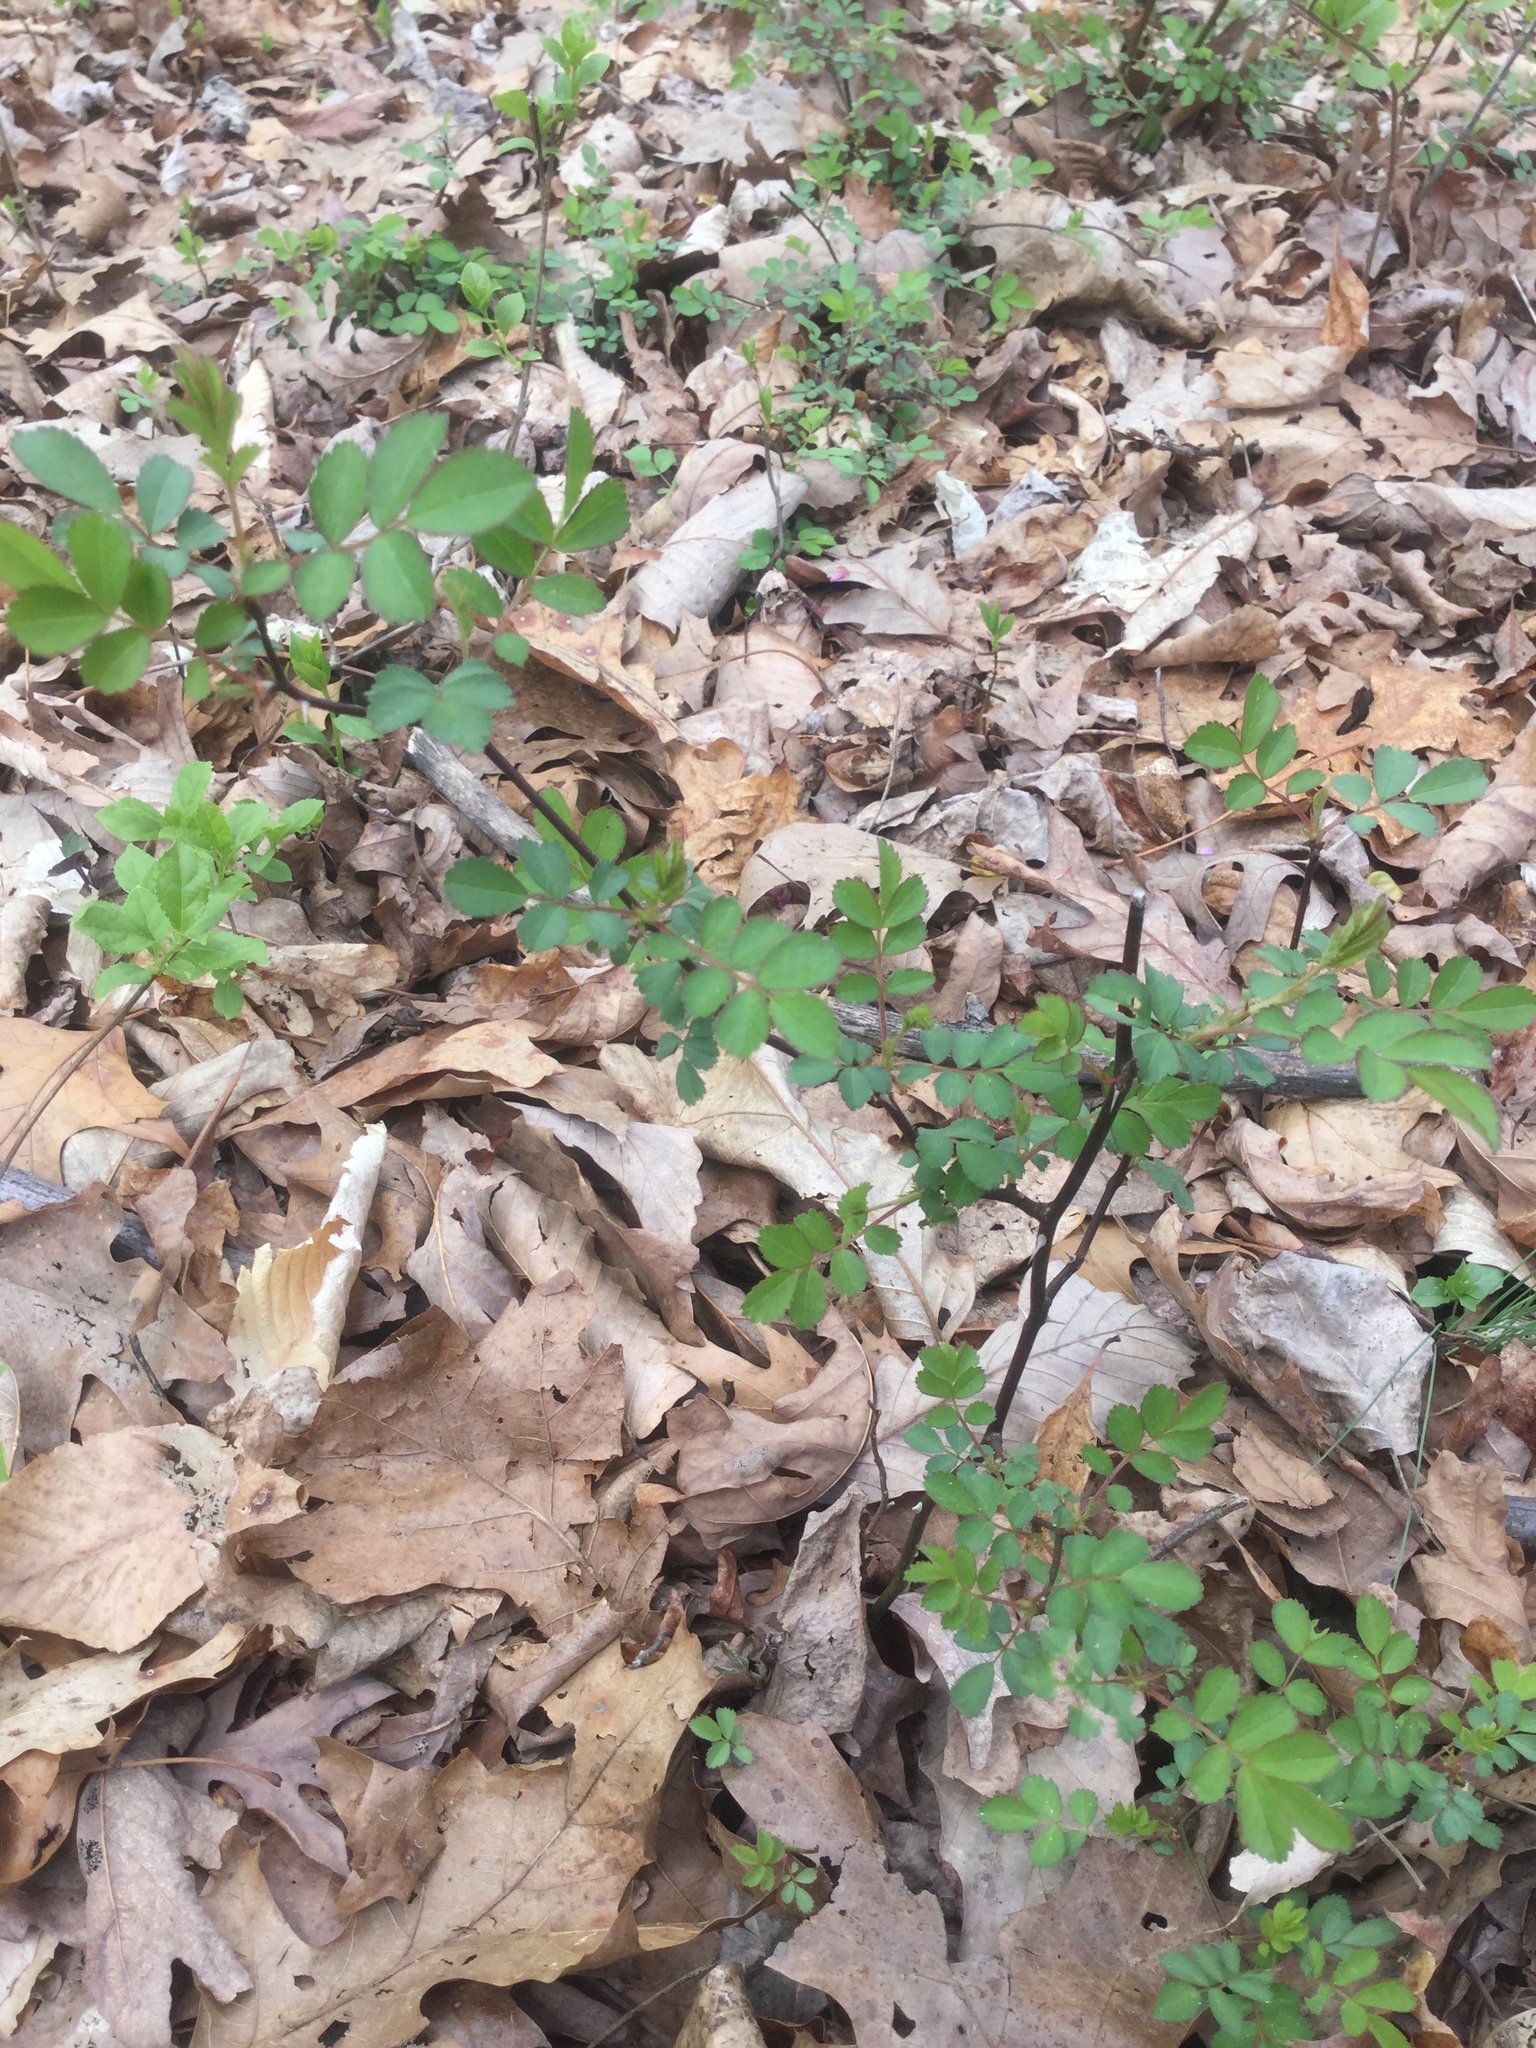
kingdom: Plantae
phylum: Tracheophyta
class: Magnoliopsida
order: Rosales
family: Rosaceae
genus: Rosa
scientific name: Rosa multiflora
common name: Multiflora rose
